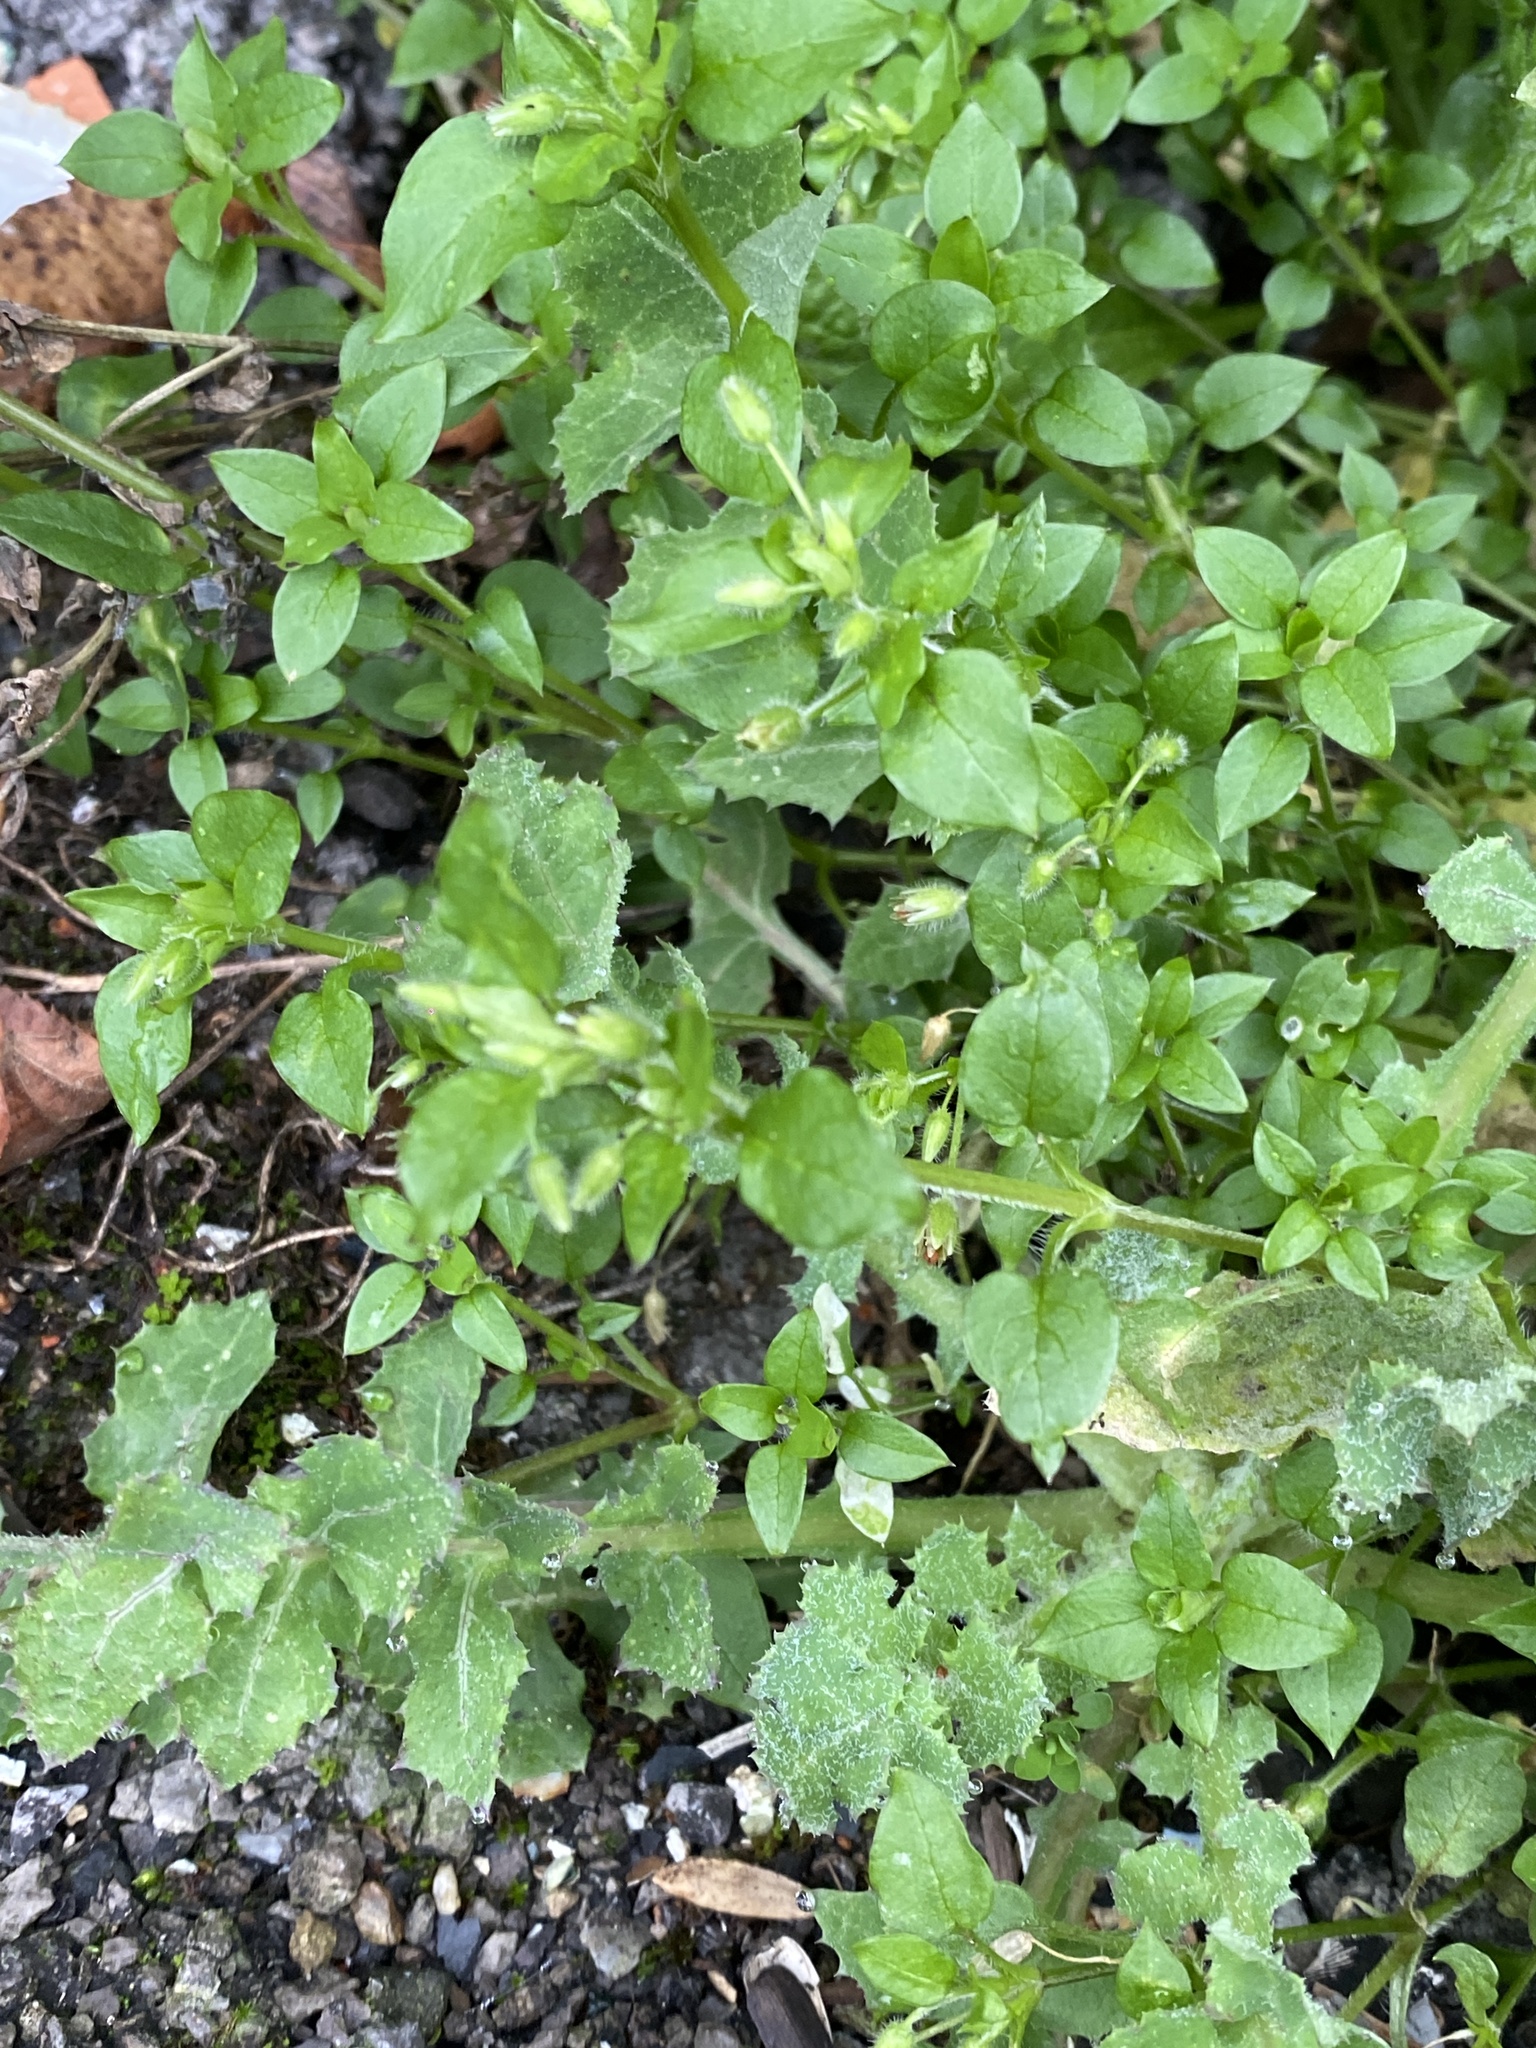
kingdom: Plantae
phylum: Tracheophyta
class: Magnoliopsida
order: Caryophyllales
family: Caryophyllaceae
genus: Stellaria
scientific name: Stellaria media
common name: Common chickweed
